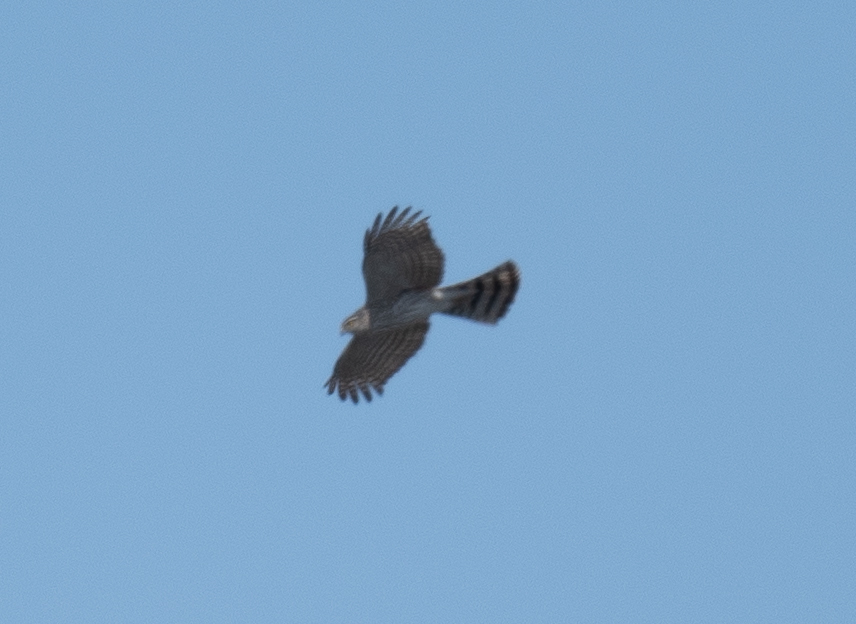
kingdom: Animalia
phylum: Chordata
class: Aves
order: Accipitriformes
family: Accipitridae
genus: Accipiter
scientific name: Accipiter striatus
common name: Sharp-shinned hawk
